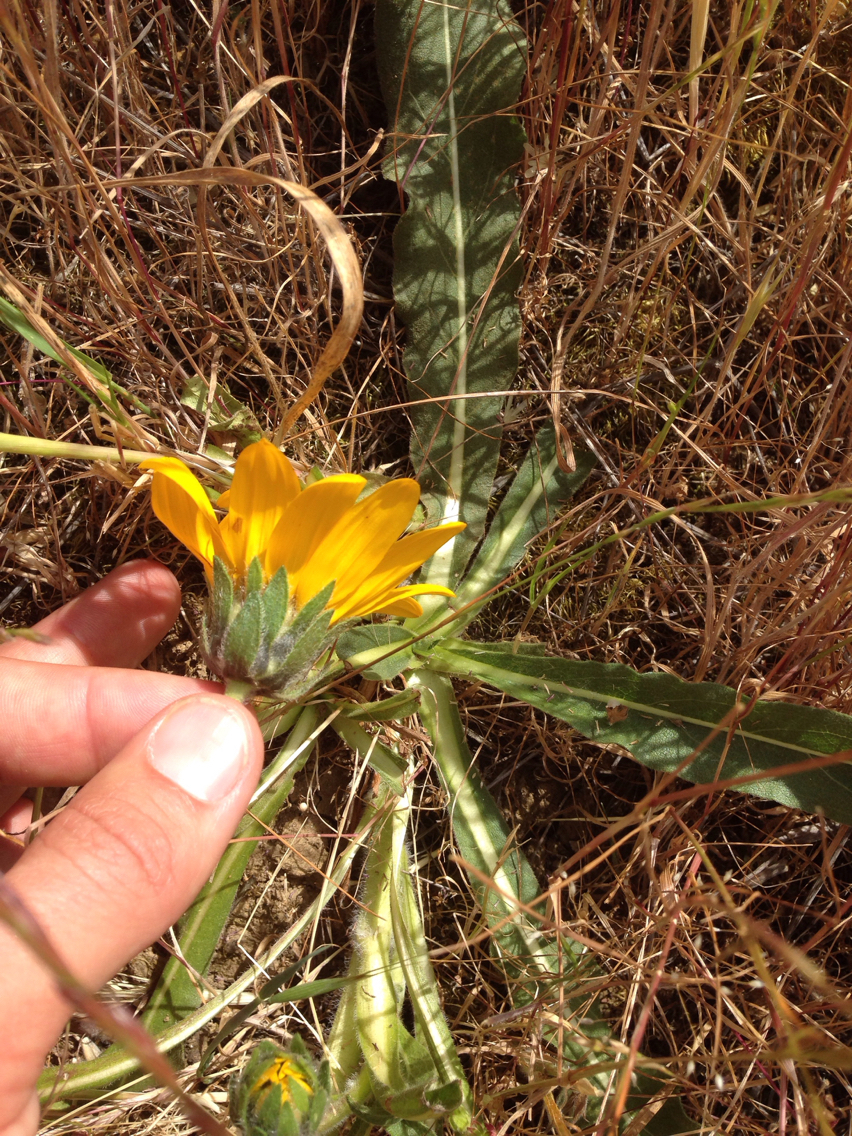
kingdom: Plantae
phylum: Tracheophyta
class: Magnoliopsida
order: Asterales
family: Asteraceae
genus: Wyethia
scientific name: Wyethia angustifolia
